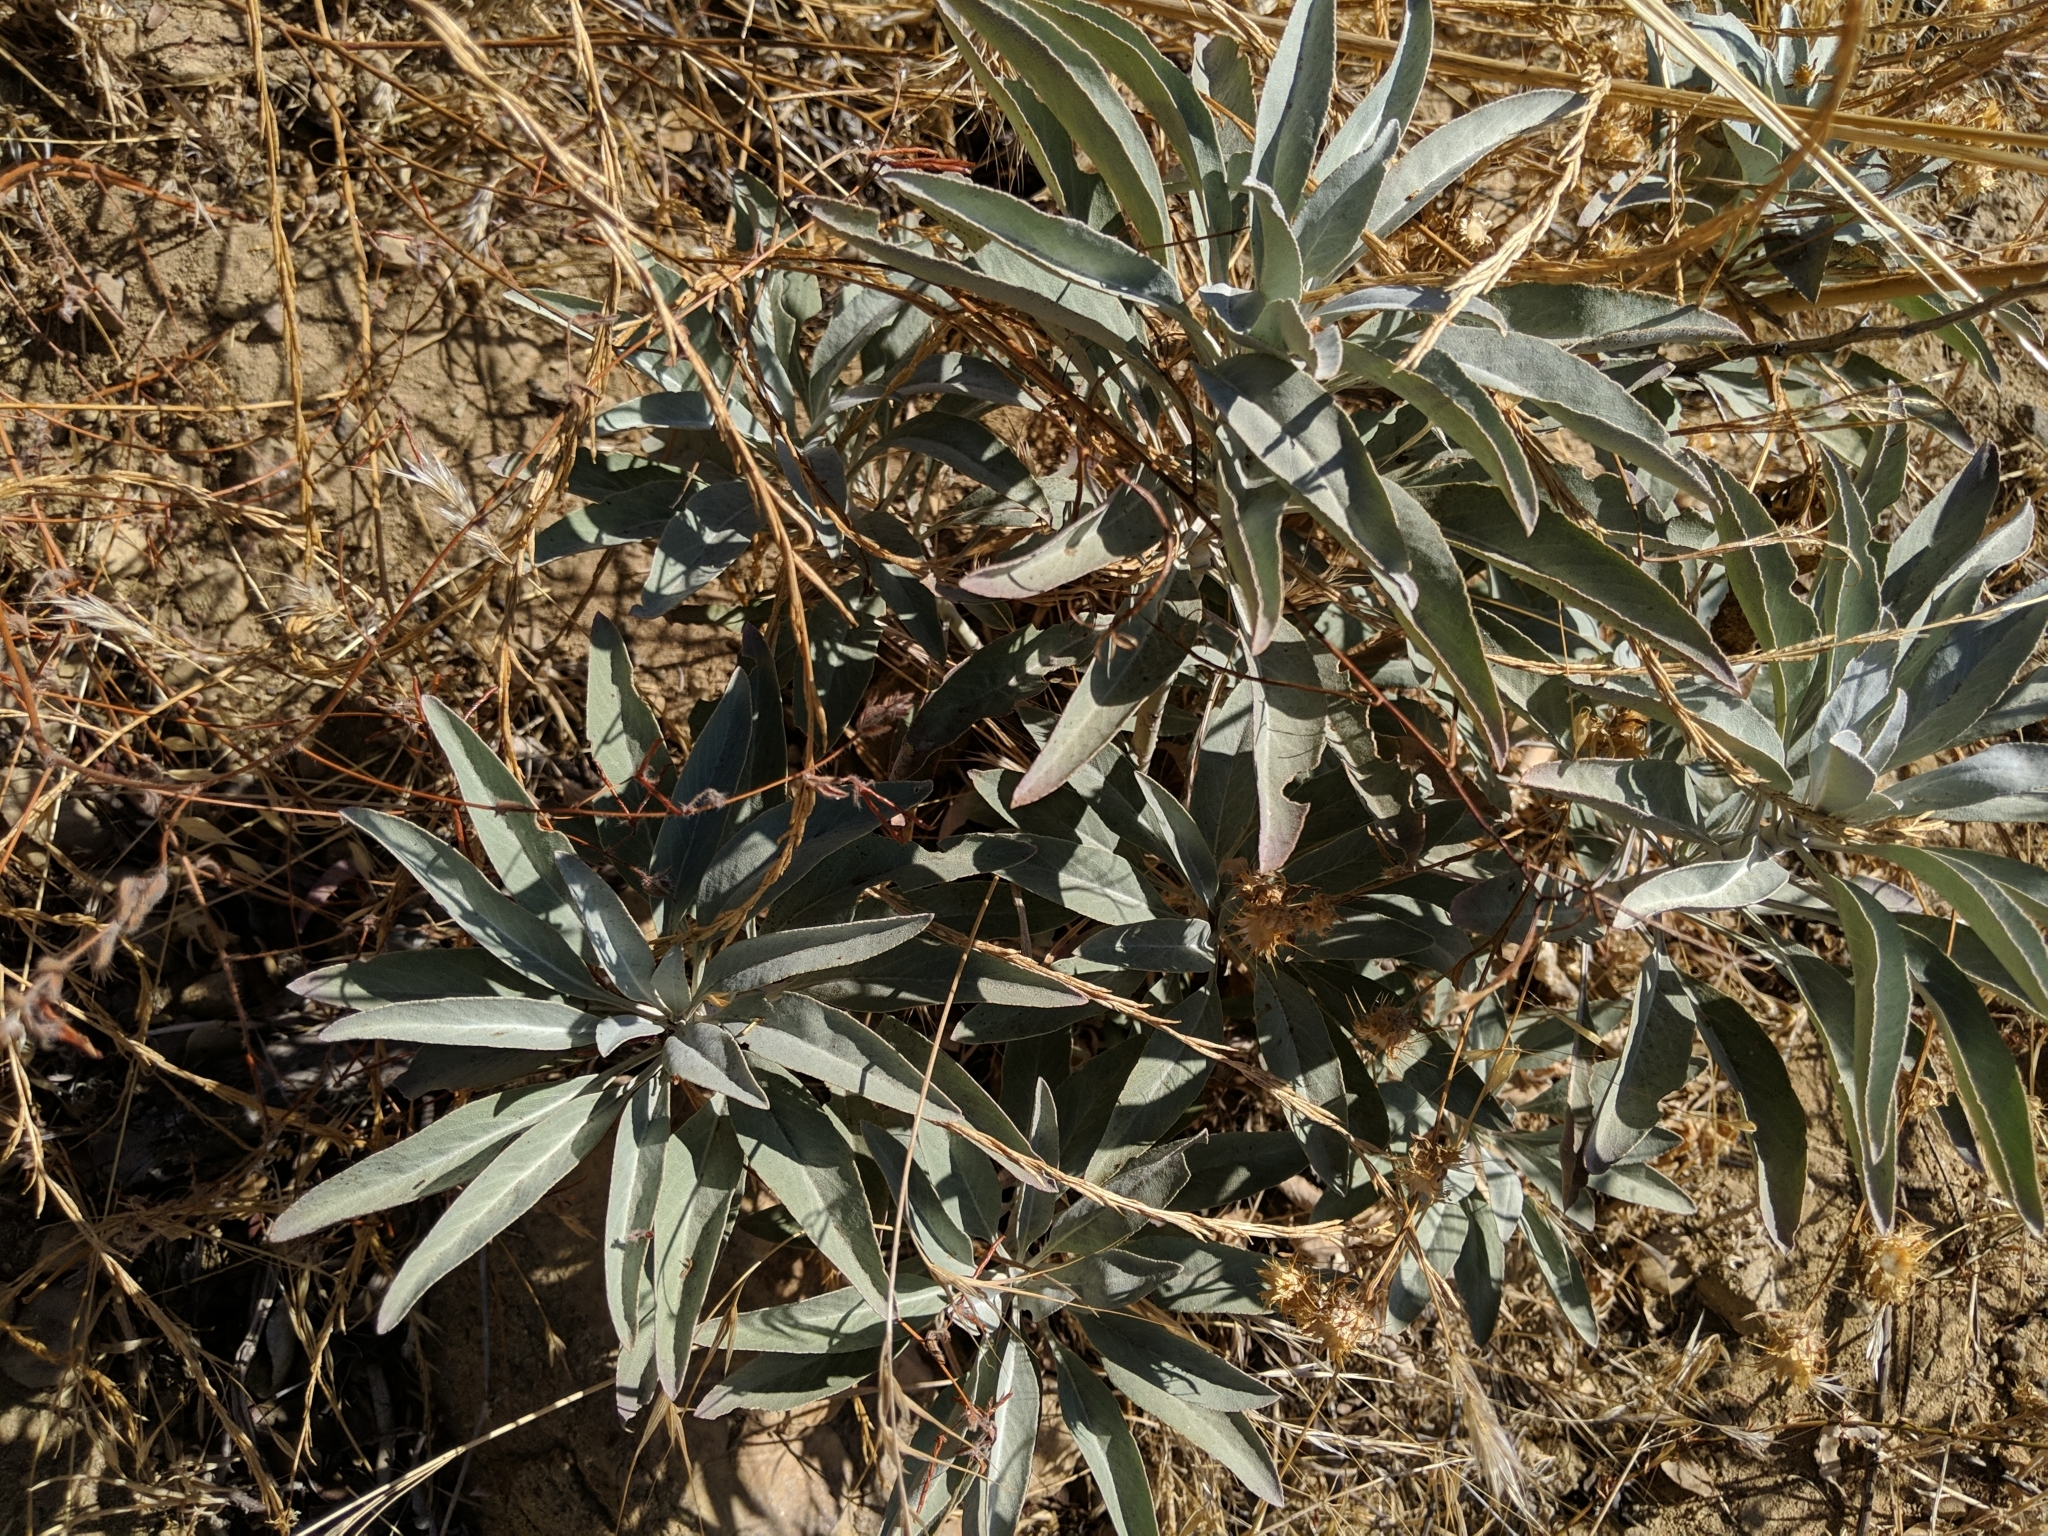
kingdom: Plantae
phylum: Tracheophyta
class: Magnoliopsida
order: Lamiales
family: Lamiaceae
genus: Salvia
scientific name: Salvia apiana
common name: White sage
